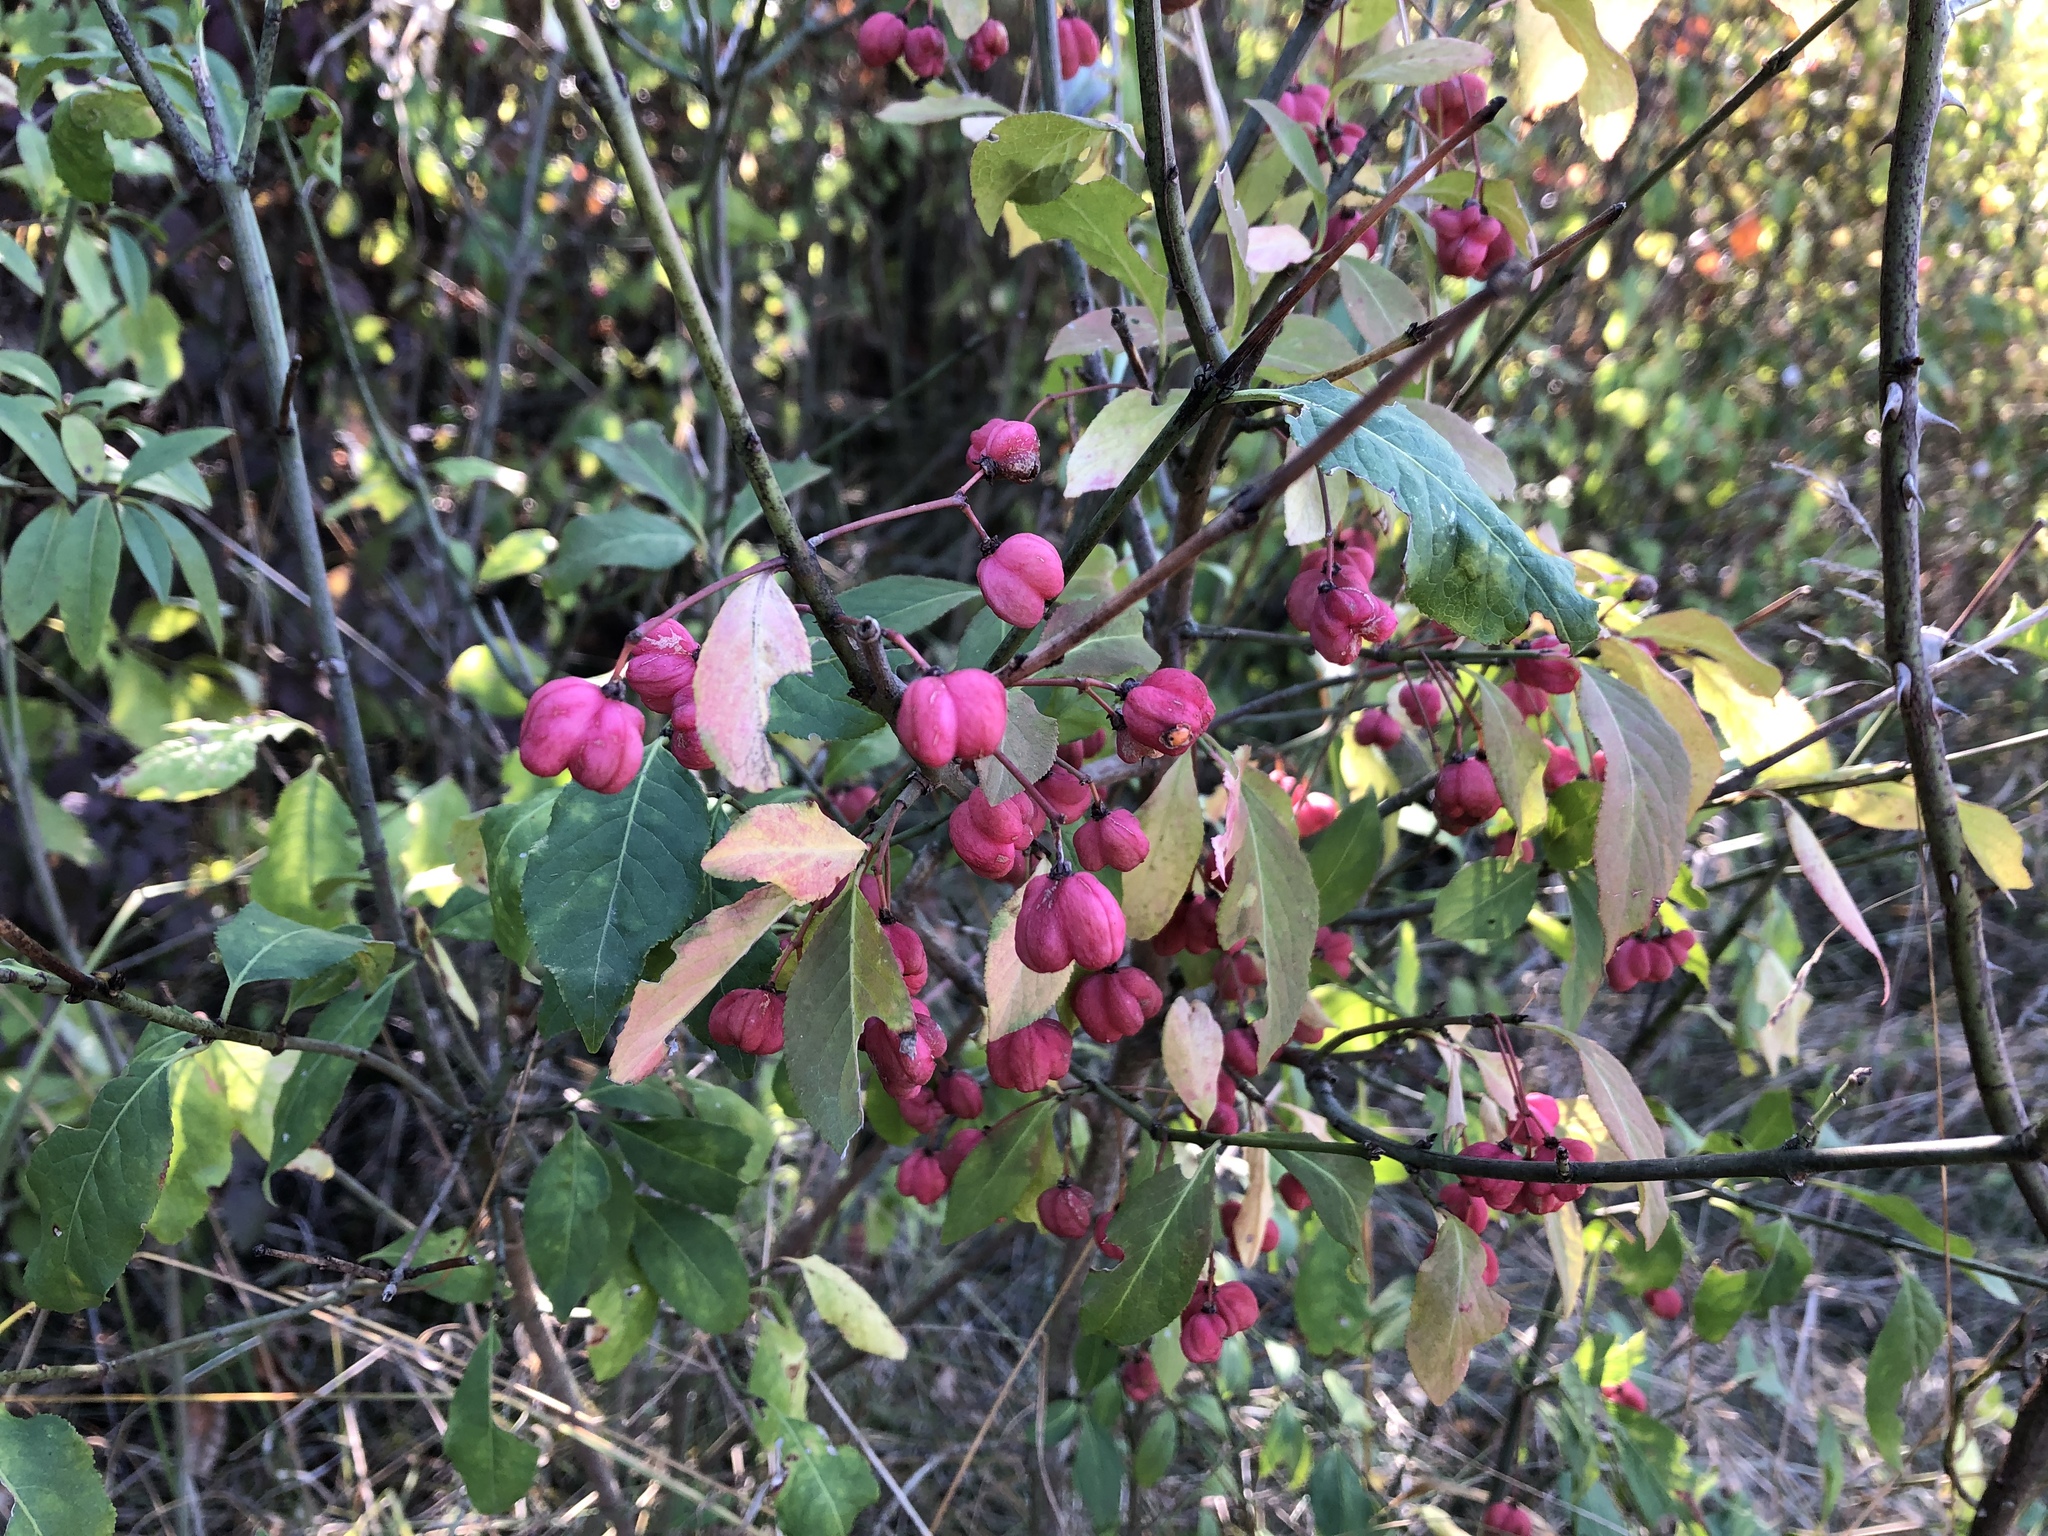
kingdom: Plantae
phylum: Tracheophyta
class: Magnoliopsida
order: Celastrales
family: Celastraceae
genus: Euonymus
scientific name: Euonymus europaeus
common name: Spindle
